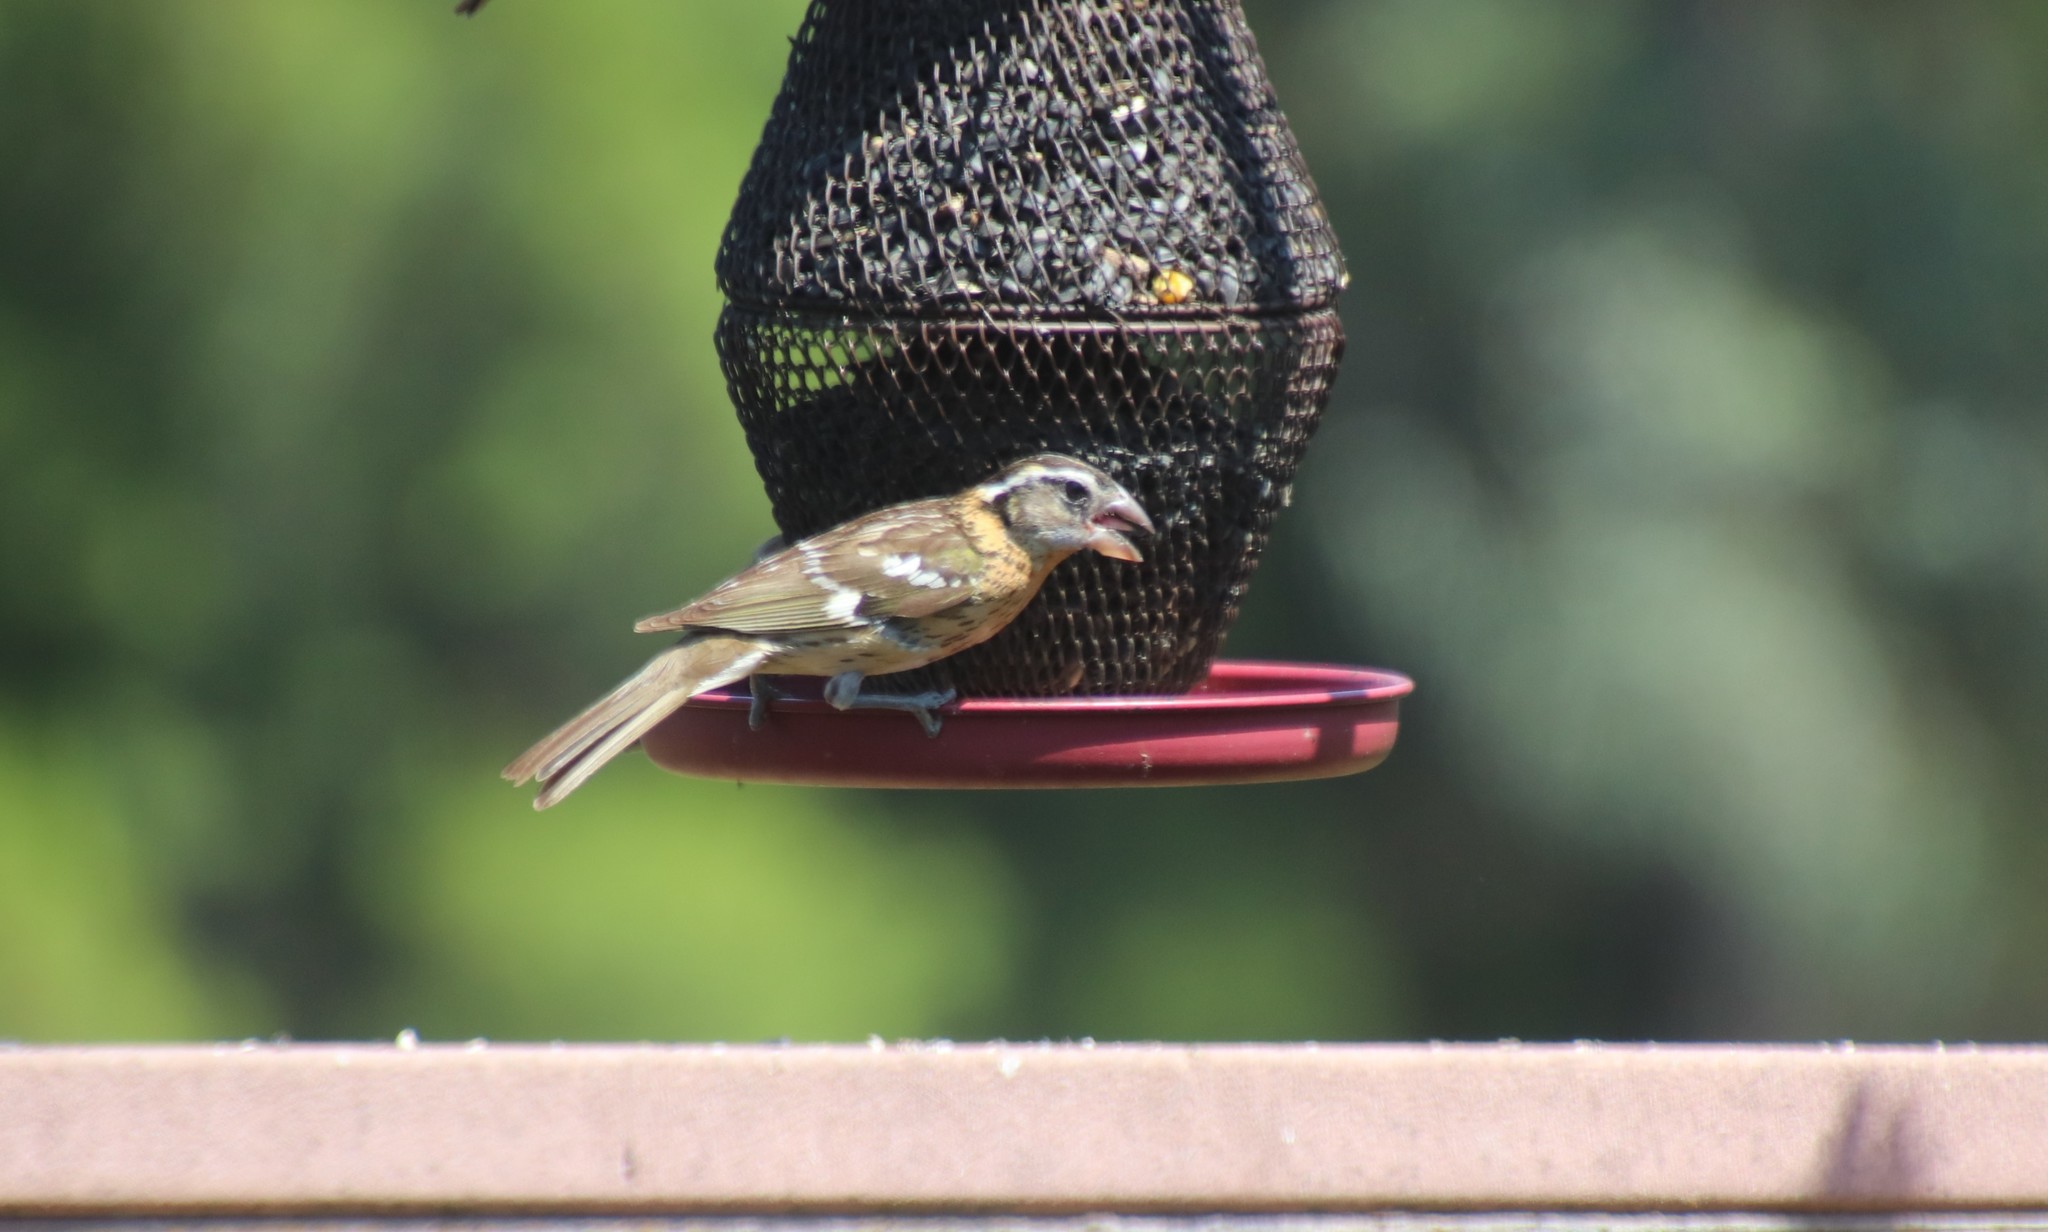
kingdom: Animalia
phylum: Chordata
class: Aves
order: Passeriformes
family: Cardinalidae
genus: Pheucticus
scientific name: Pheucticus melanocephalus
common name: Black-headed grosbeak
